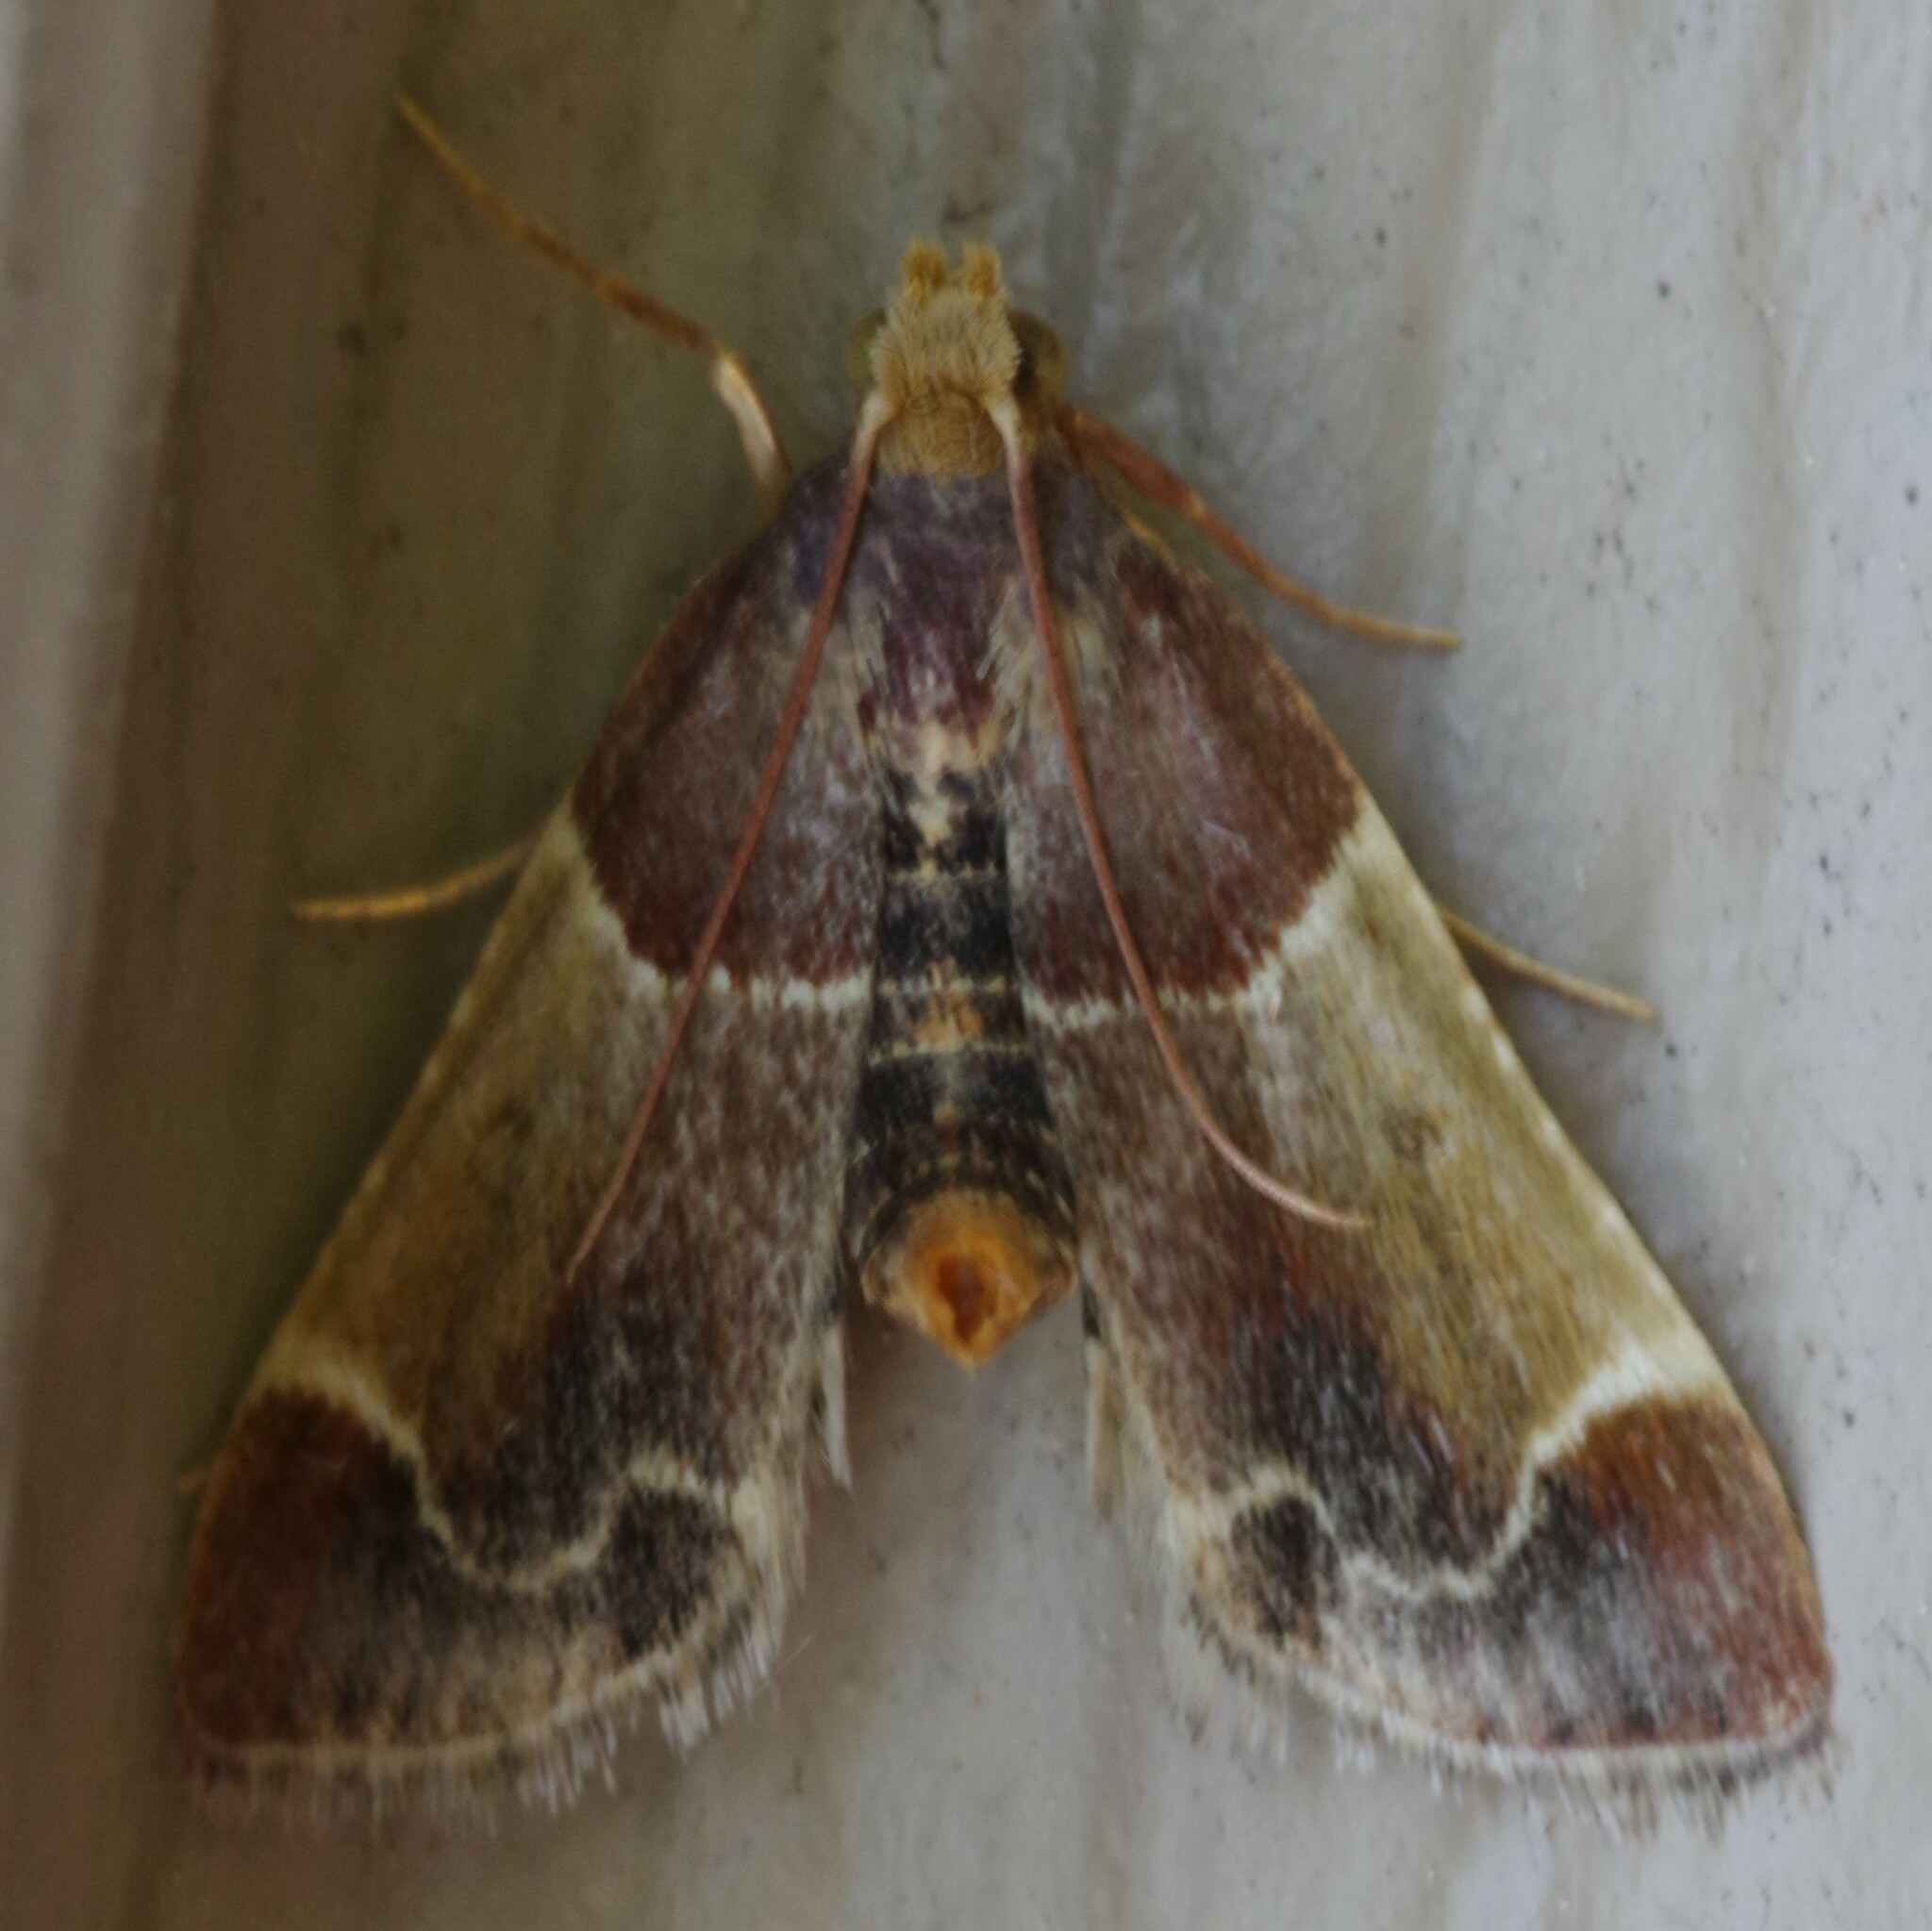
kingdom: Animalia
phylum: Arthropoda
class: Insecta
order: Lepidoptera
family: Pyralidae
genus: Pyralis
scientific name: Pyralis farinalis
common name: Meal moth
